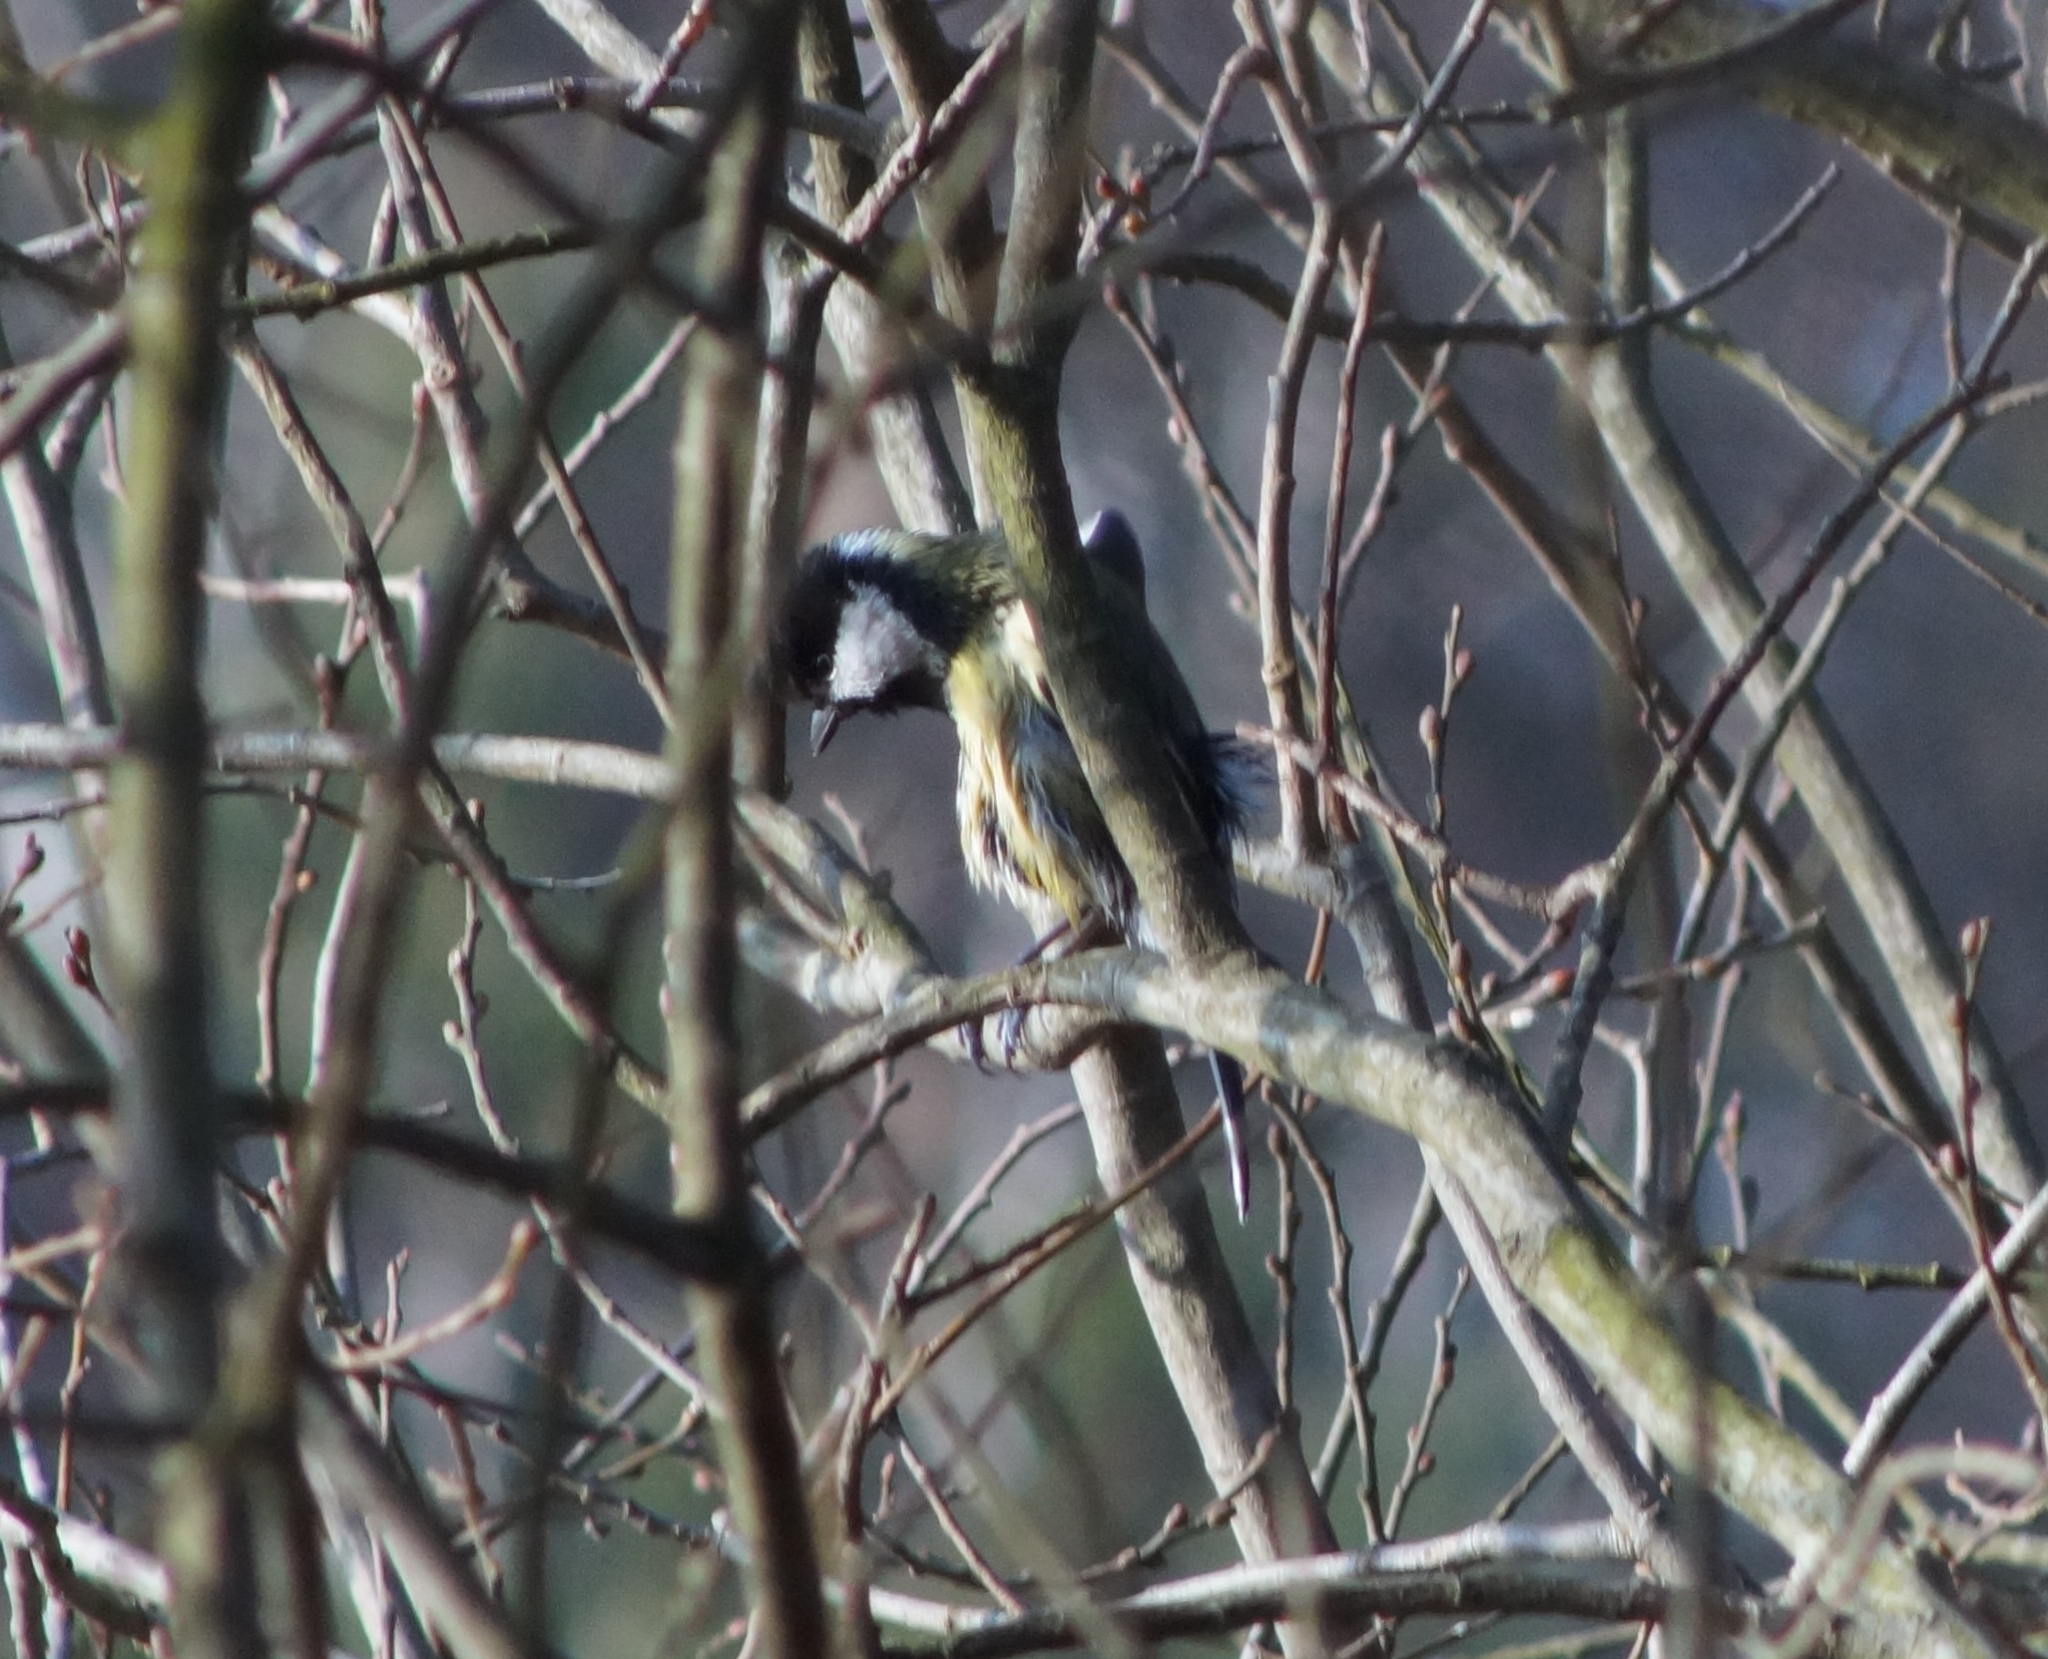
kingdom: Animalia
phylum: Chordata
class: Aves
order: Passeriformes
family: Paridae
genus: Parus
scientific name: Parus major
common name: Great tit
